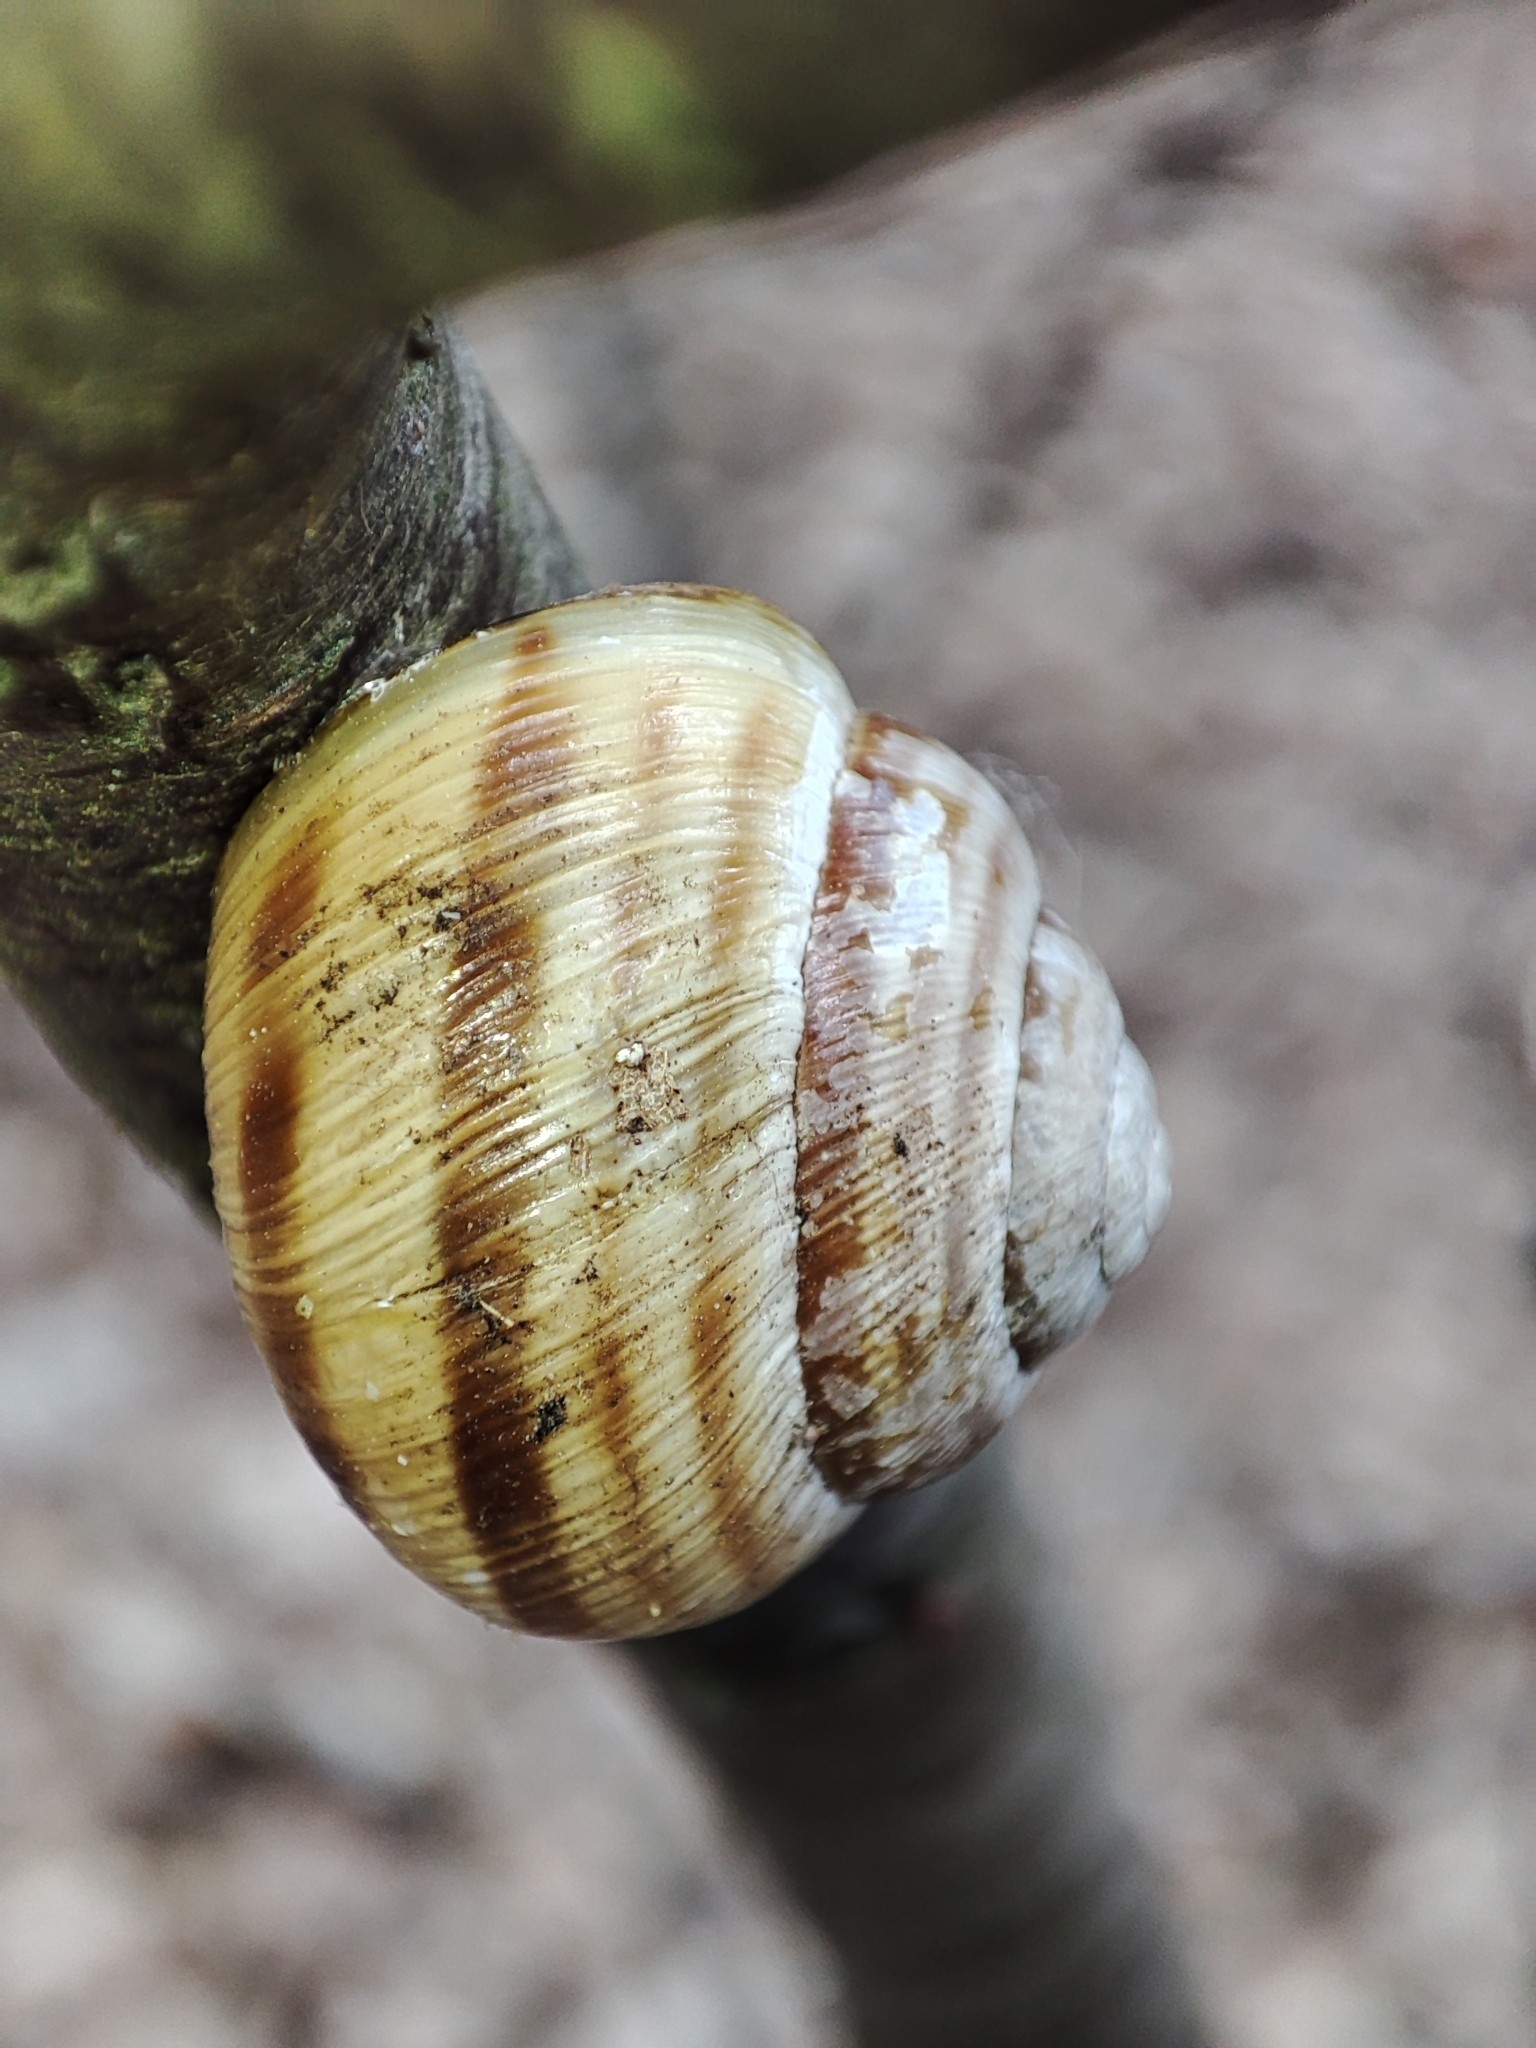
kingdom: Animalia
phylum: Mollusca
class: Gastropoda
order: Stylommatophora
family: Helicidae
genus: Caucasotachea
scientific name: Caucasotachea vindobonensis
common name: European helicid land snail
